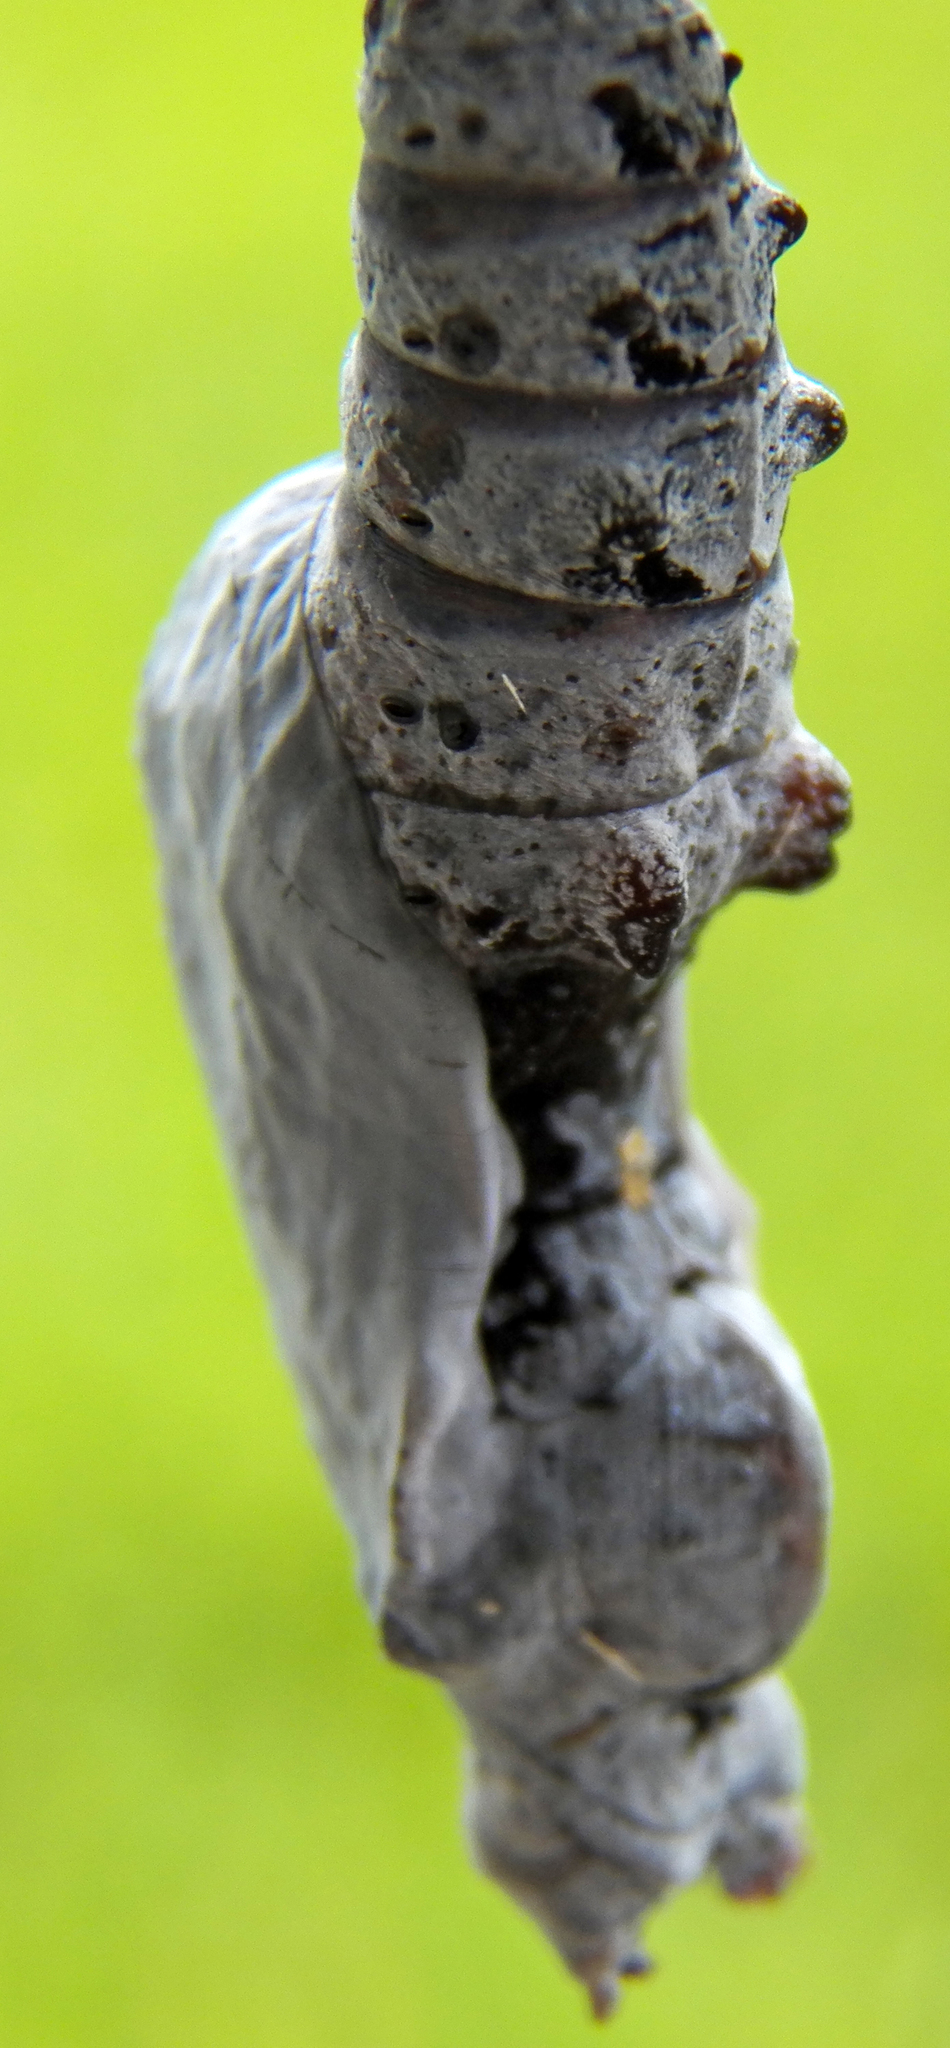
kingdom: Animalia
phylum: Arthropoda
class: Insecta
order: Lepidoptera
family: Nymphalidae
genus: Dione
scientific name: Dione vanillae
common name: Gulf fritillary
